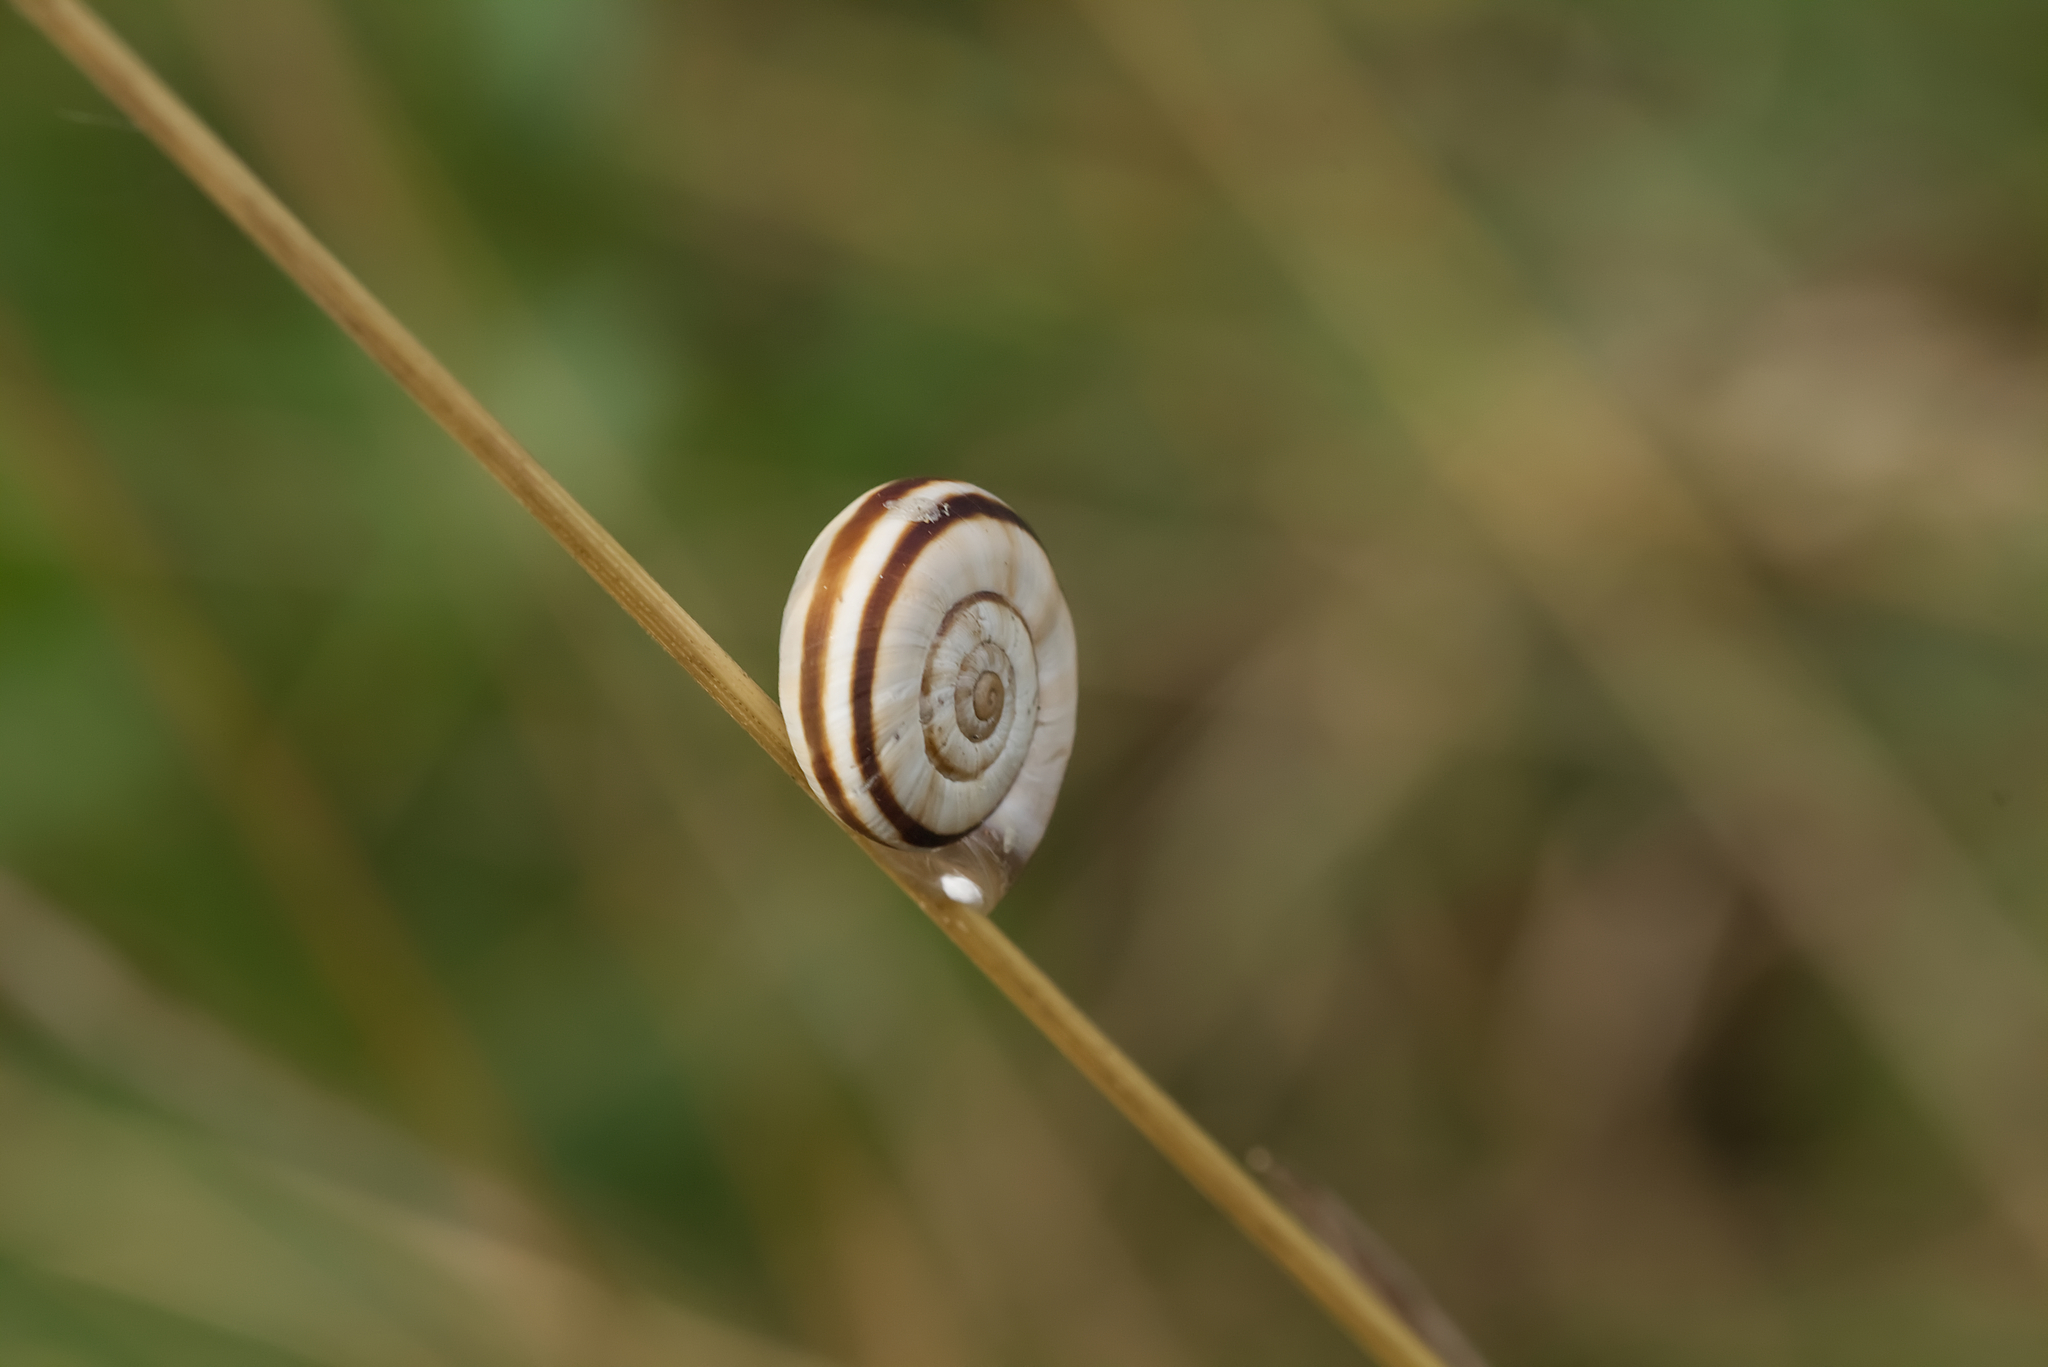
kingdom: Animalia
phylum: Mollusca
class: Gastropoda
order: Stylommatophora
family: Geomitridae
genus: Xerolenta
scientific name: Xerolenta obvia
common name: White heath snail
